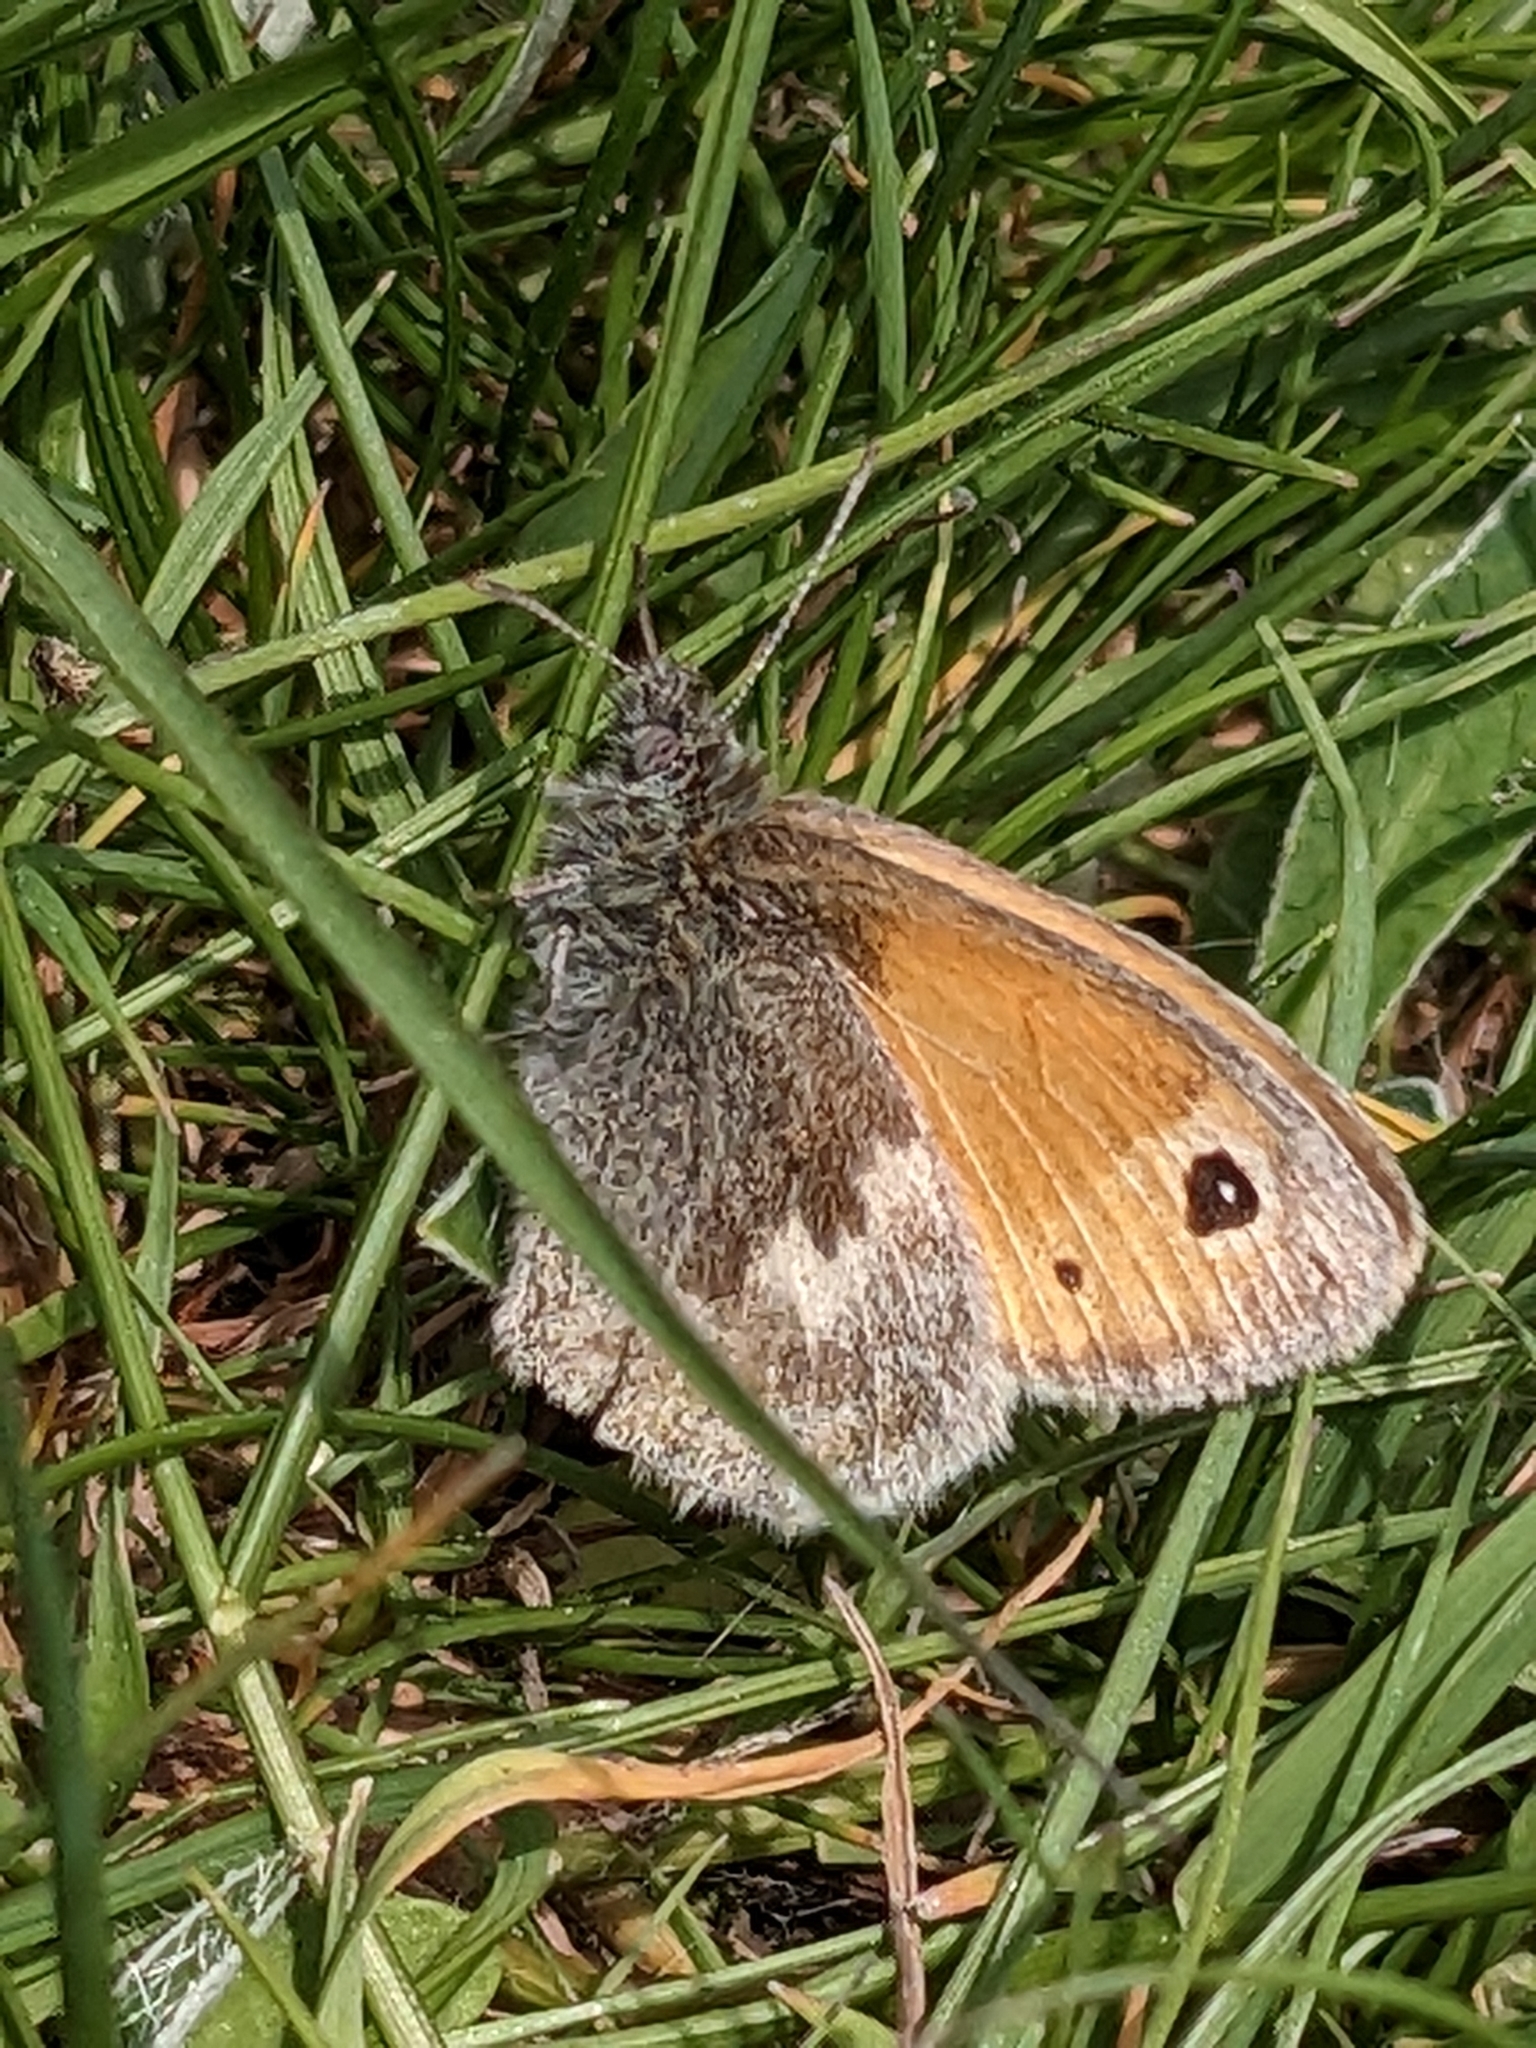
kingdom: Animalia
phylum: Arthropoda
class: Insecta
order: Lepidoptera
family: Nymphalidae
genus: Coenonympha
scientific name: Coenonympha pamphilus
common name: Small heath
